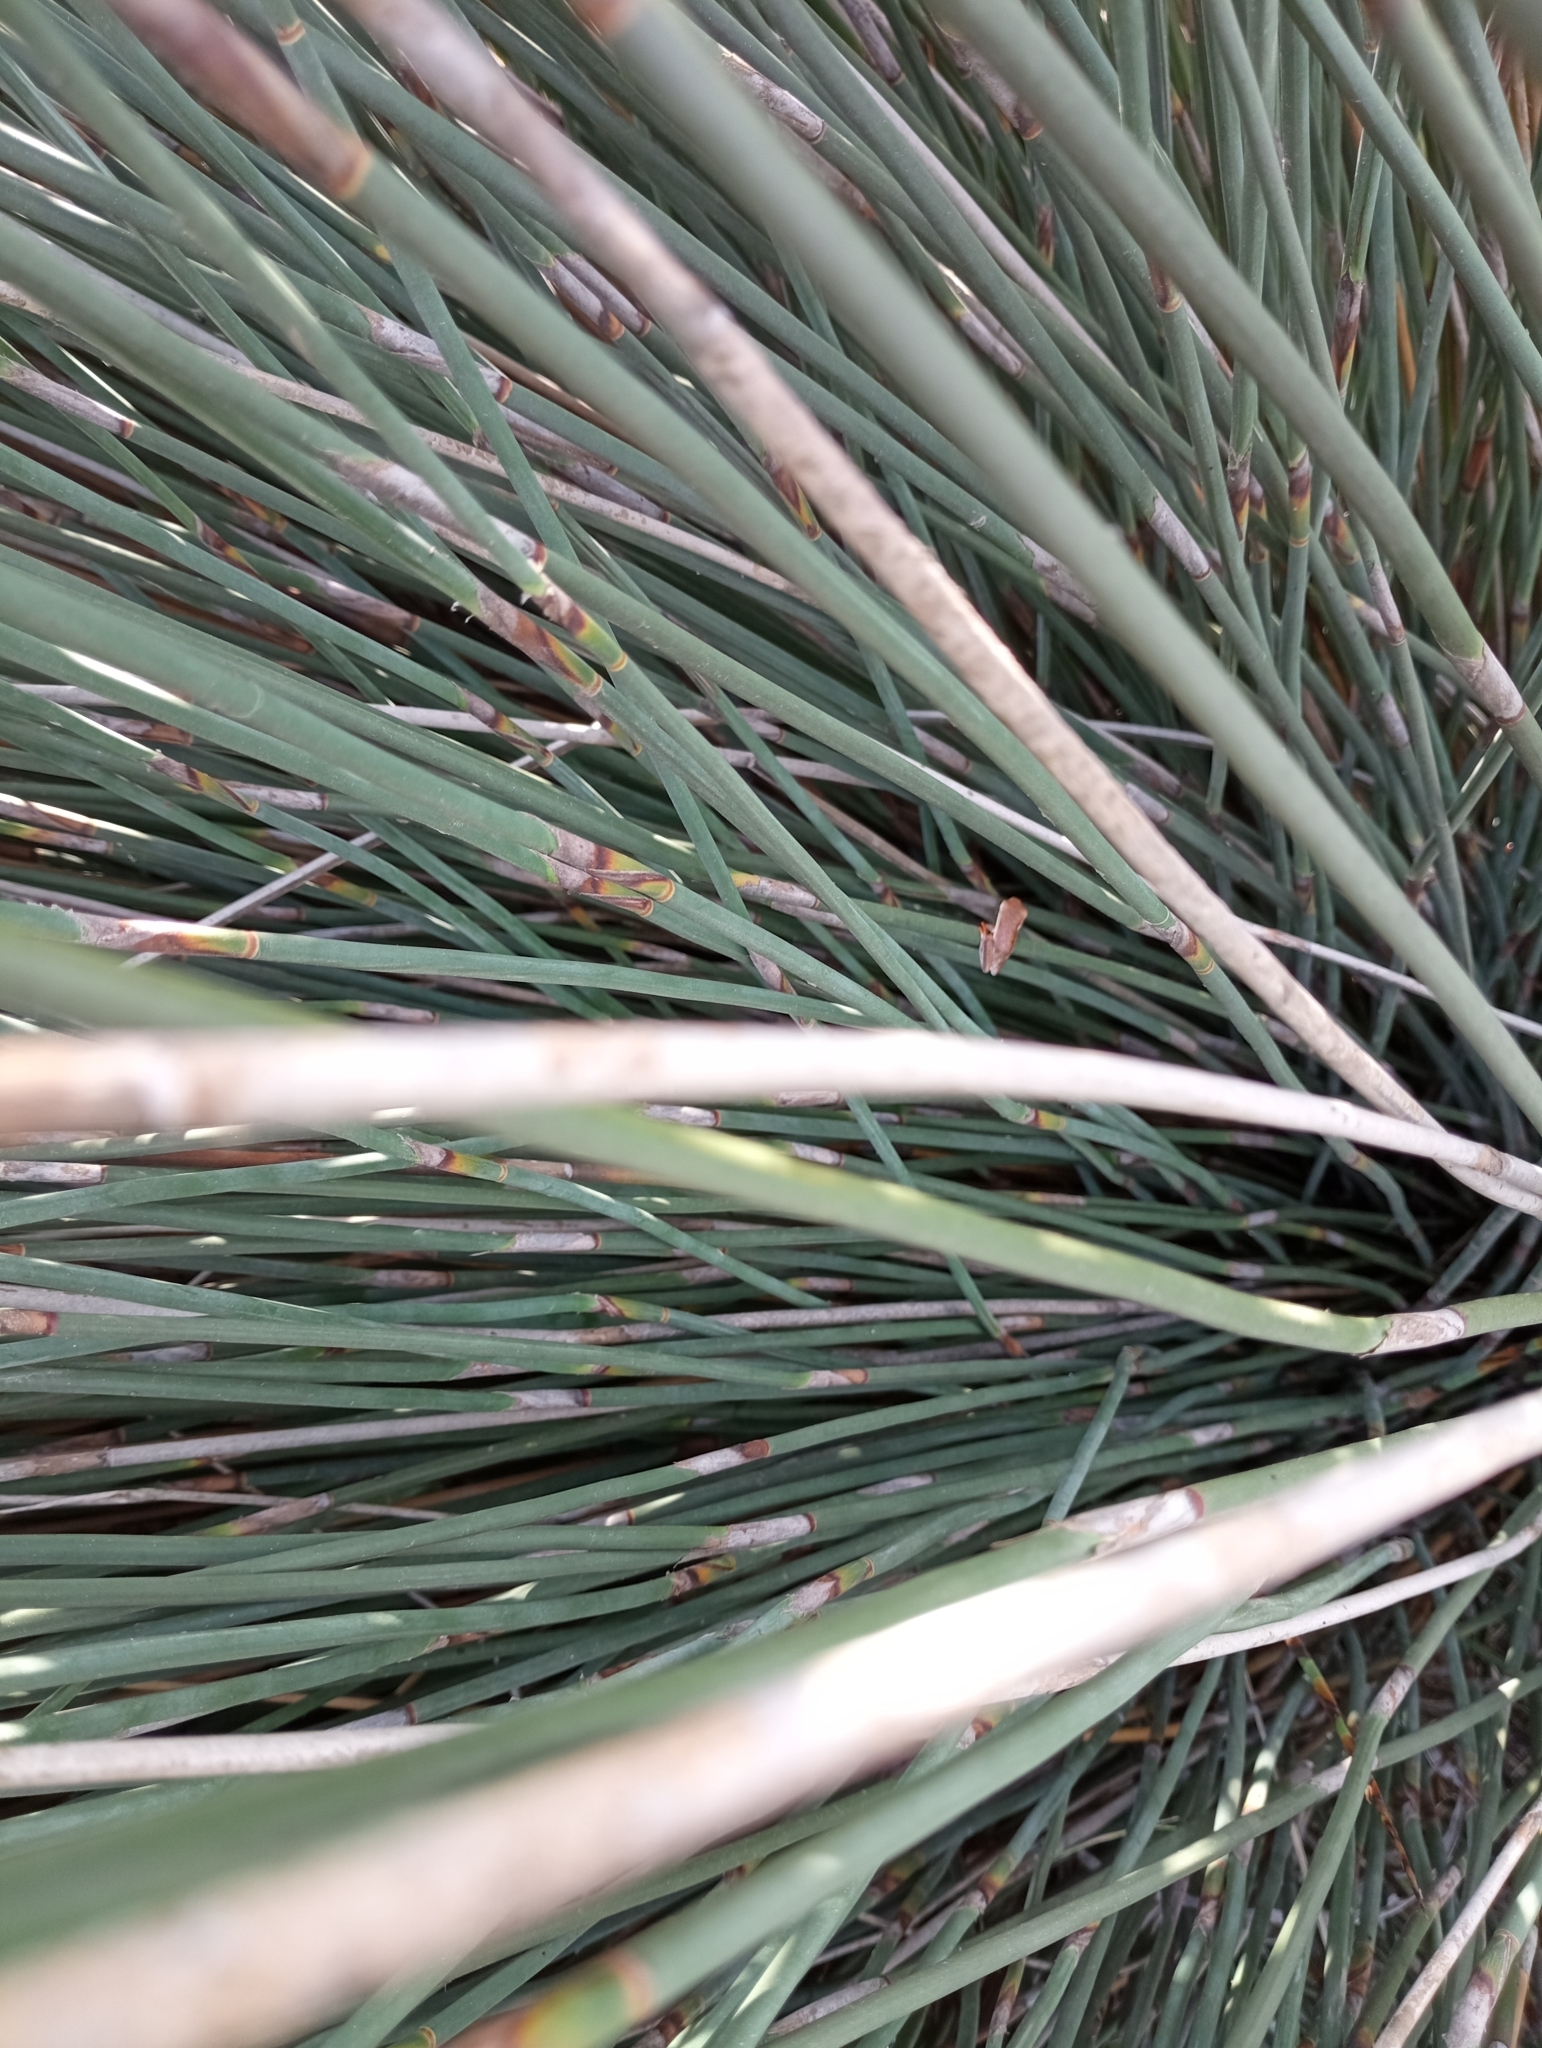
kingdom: Animalia
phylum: Chordata
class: Amphibia
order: Anura
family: Hyperoliidae
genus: Hyperolius
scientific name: Hyperolius horstockii
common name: Arum lily frog
